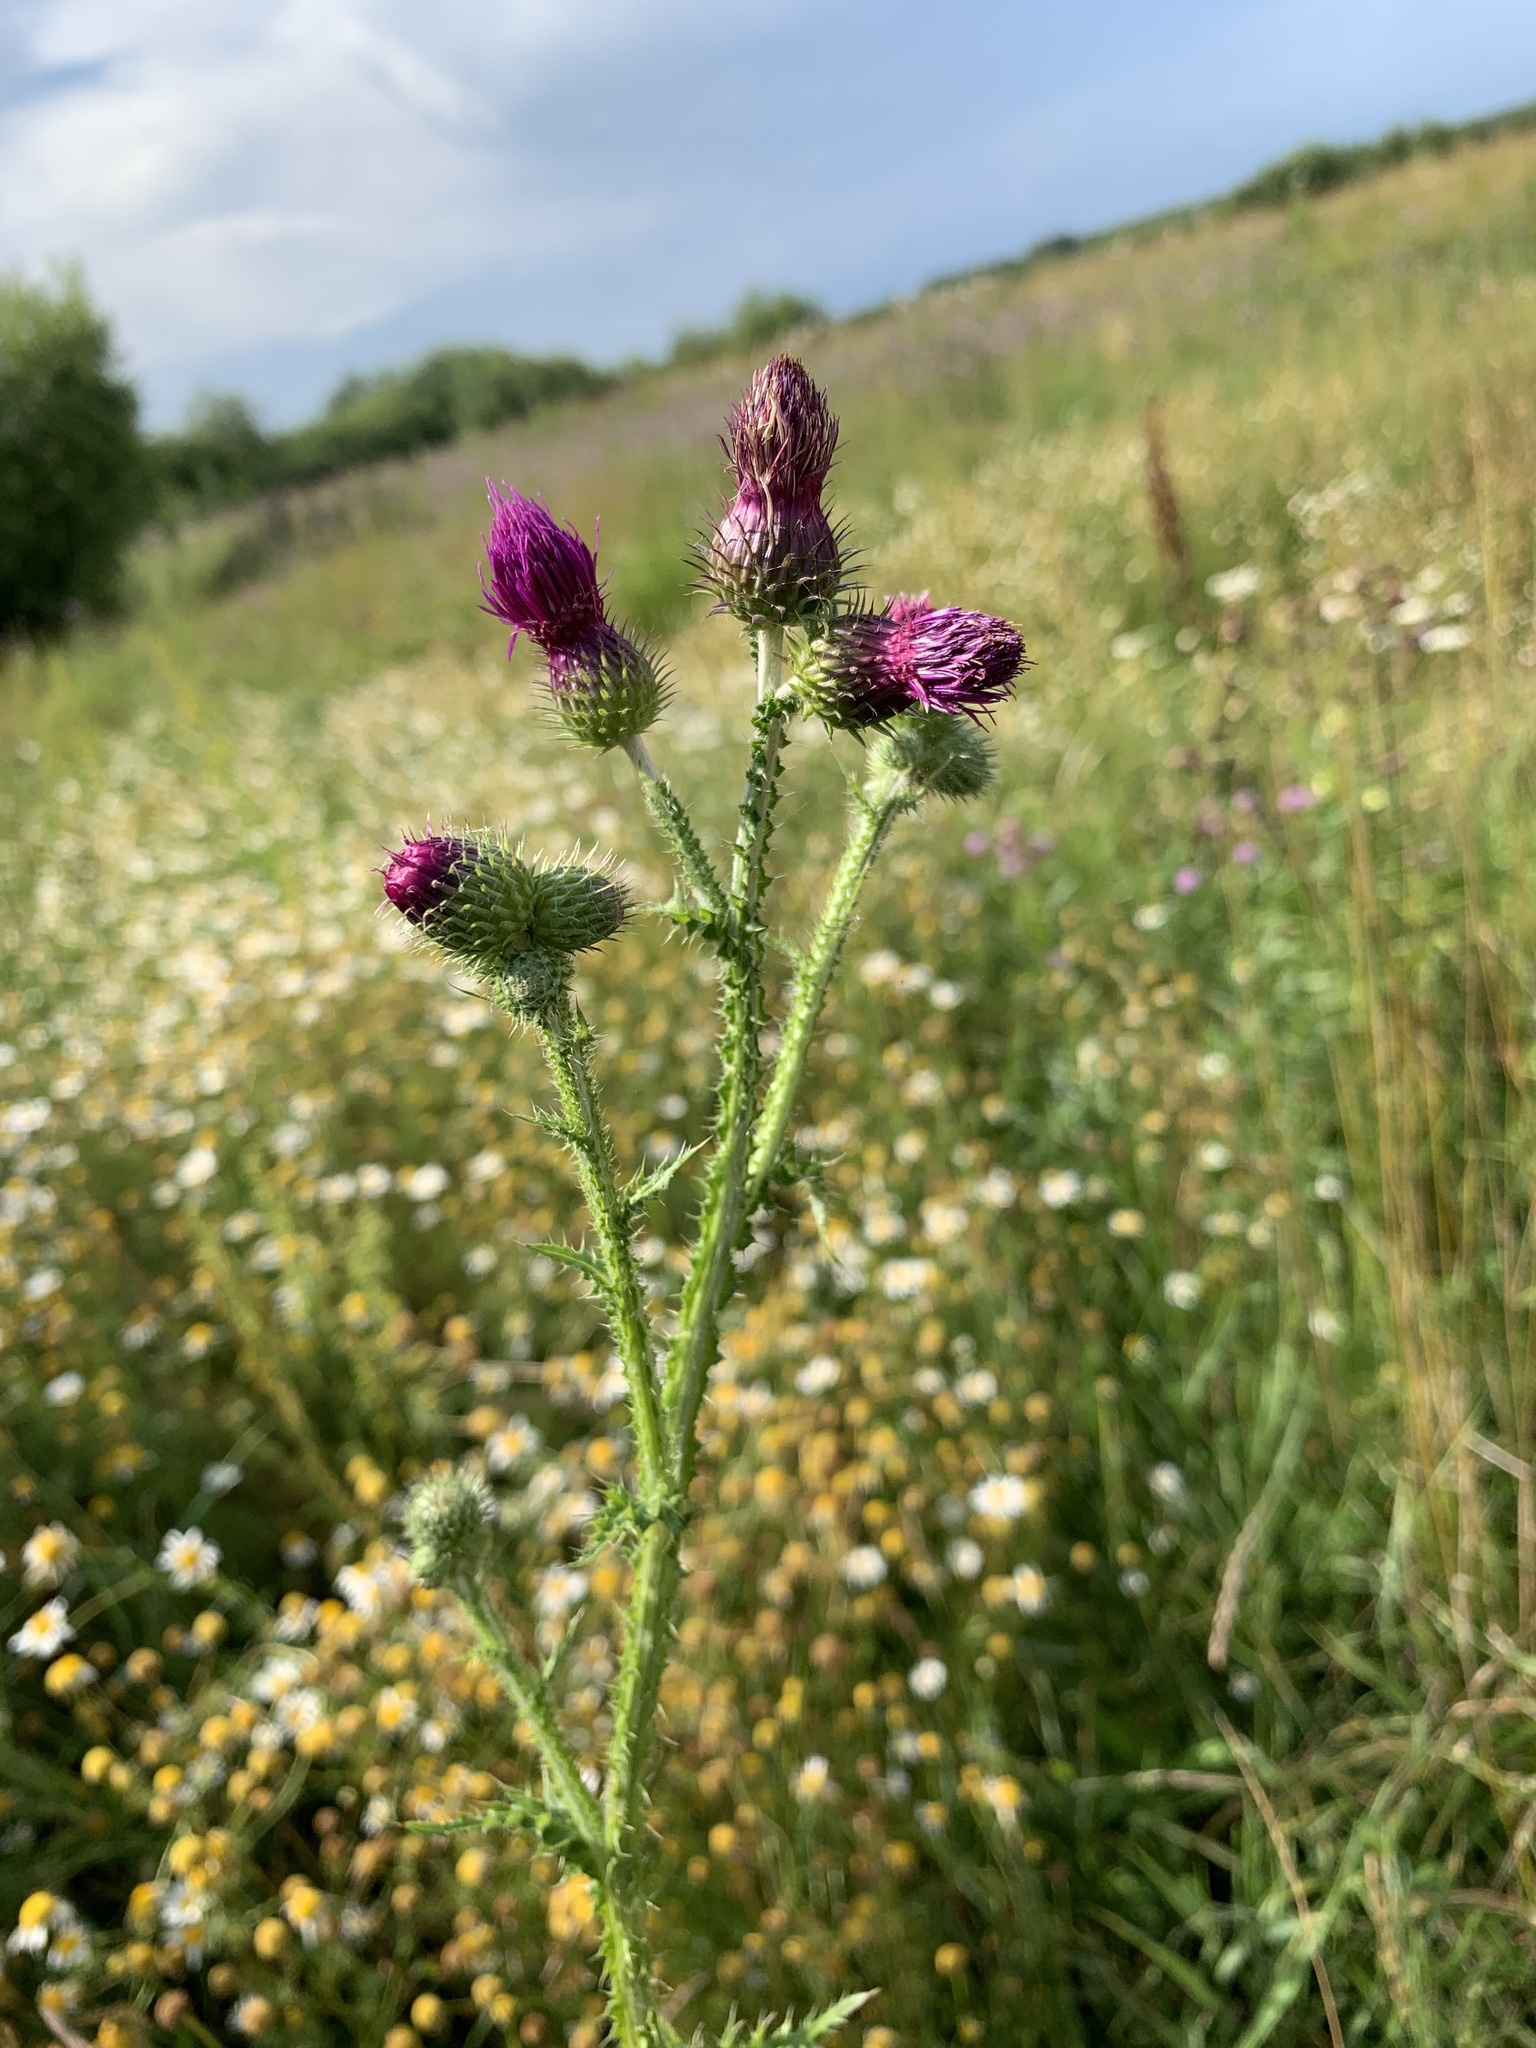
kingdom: Plantae
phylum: Tracheophyta
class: Magnoliopsida
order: Asterales
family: Asteraceae
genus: Carduus
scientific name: Carduus crispus
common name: Welted thistle
